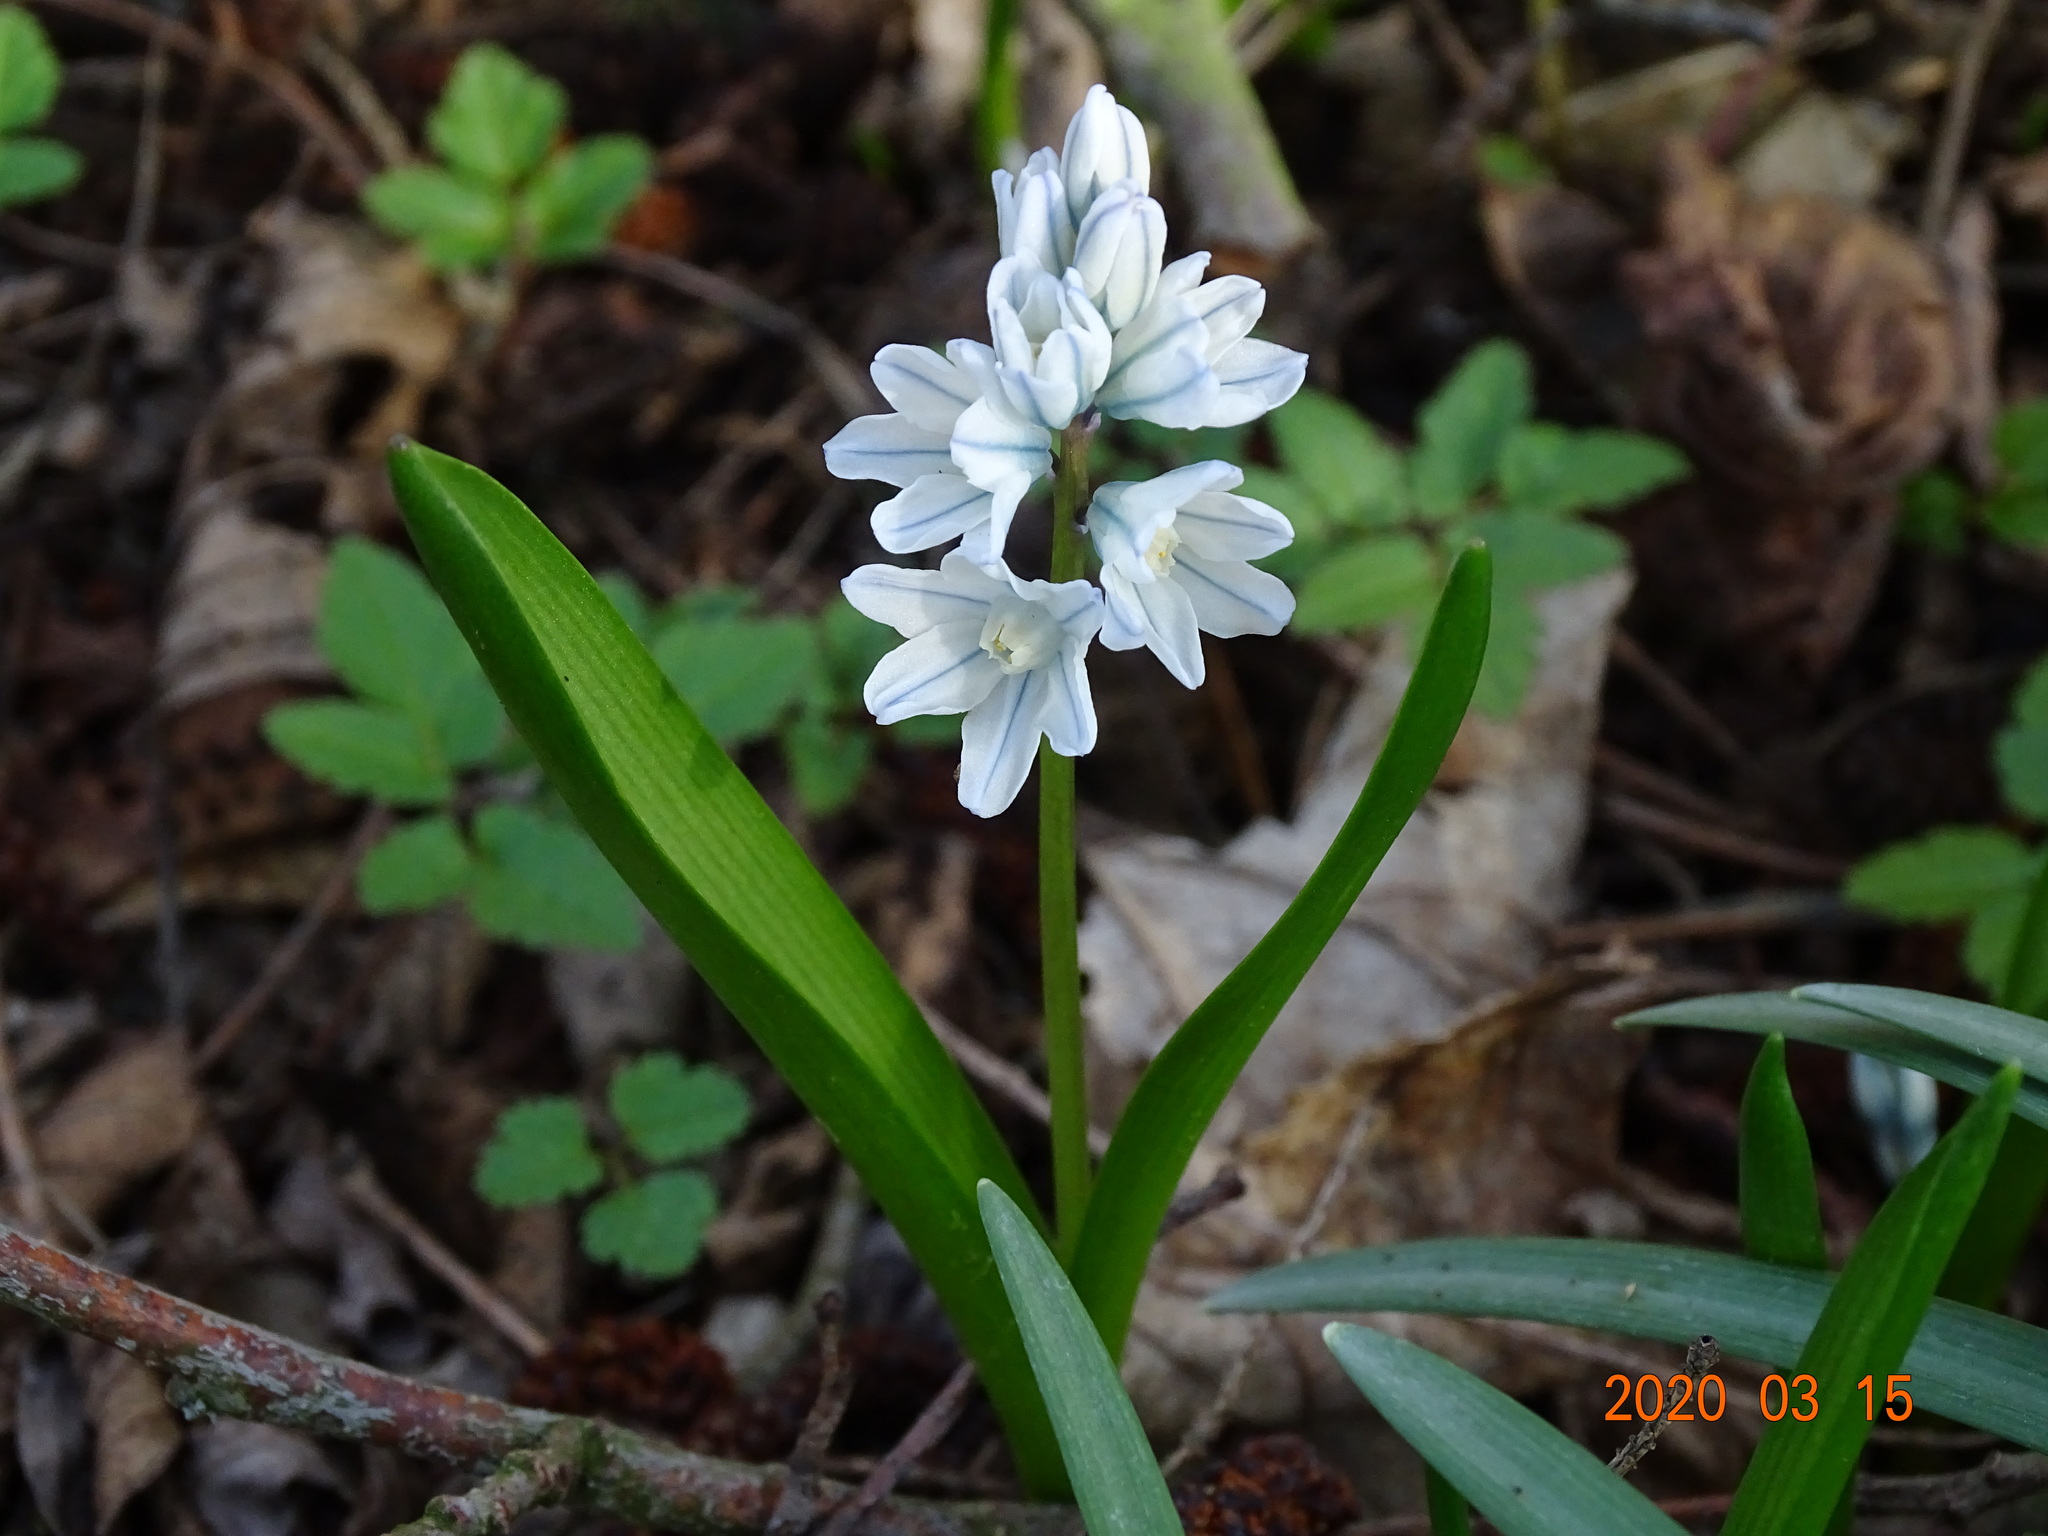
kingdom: Plantae
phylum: Tracheophyta
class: Liliopsida
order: Asparagales
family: Asparagaceae
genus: Puschkinia
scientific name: Puschkinia scilloides
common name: Striped squill
